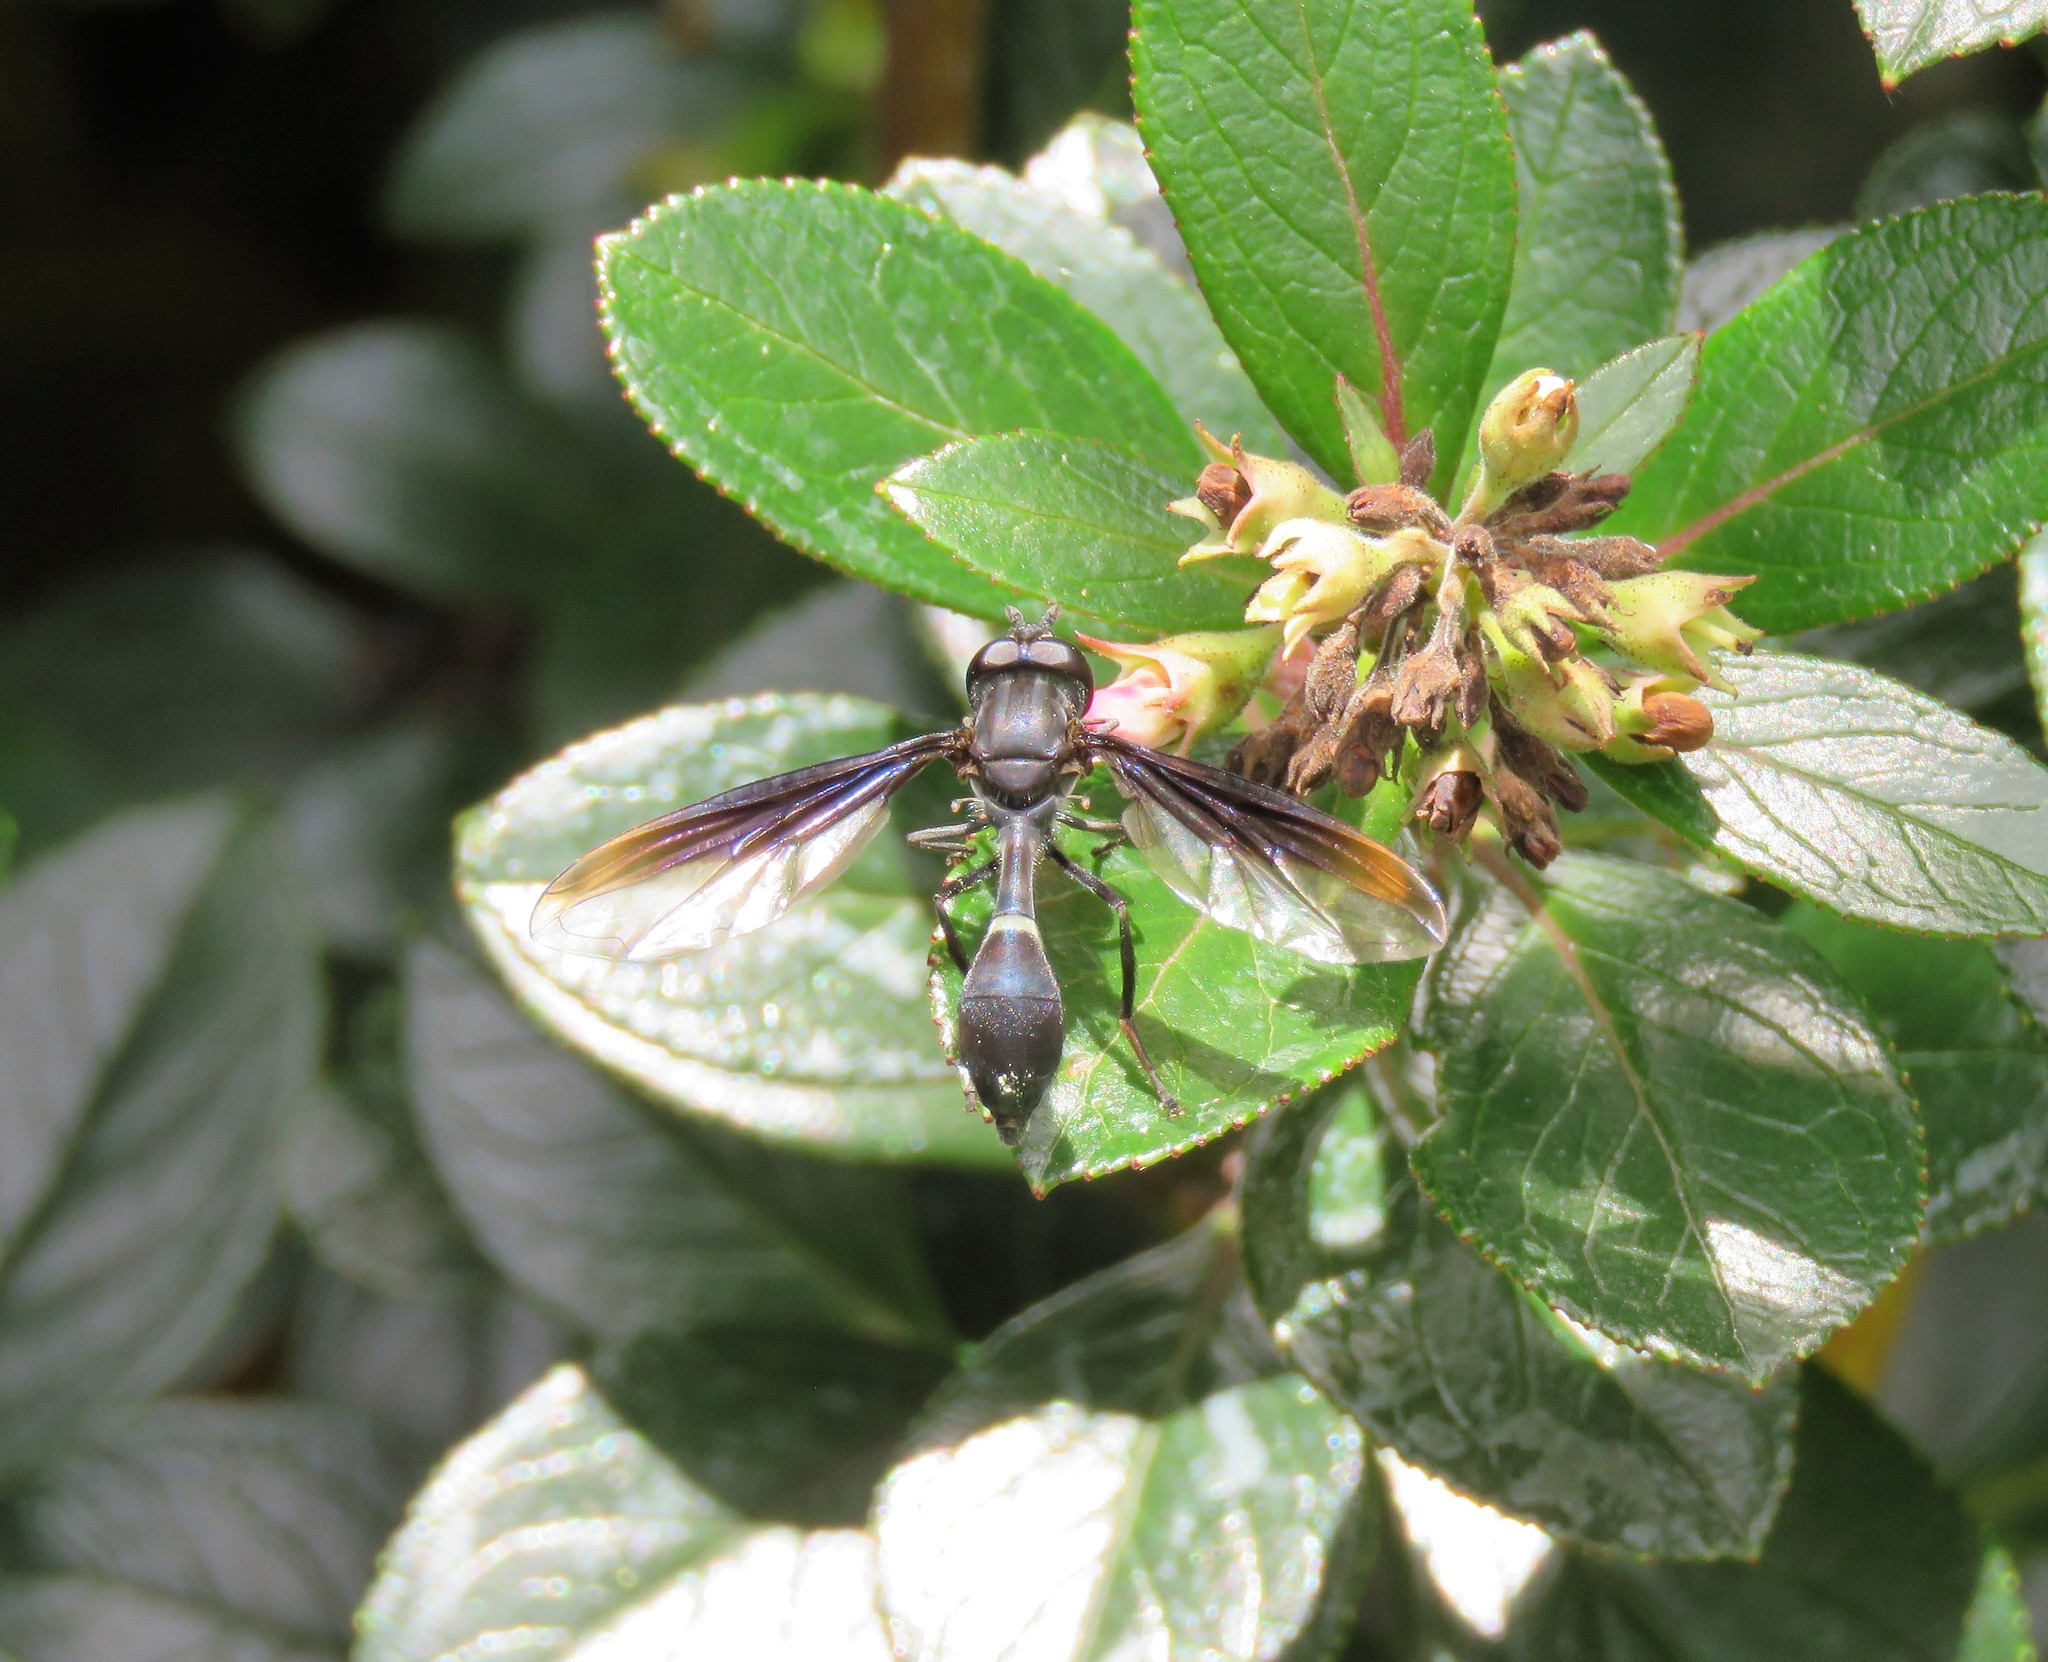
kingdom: Animalia
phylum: Arthropoda
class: Insecta
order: Diptera
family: Syrphidae
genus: Mimocalla
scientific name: Mimocalla giganteus
